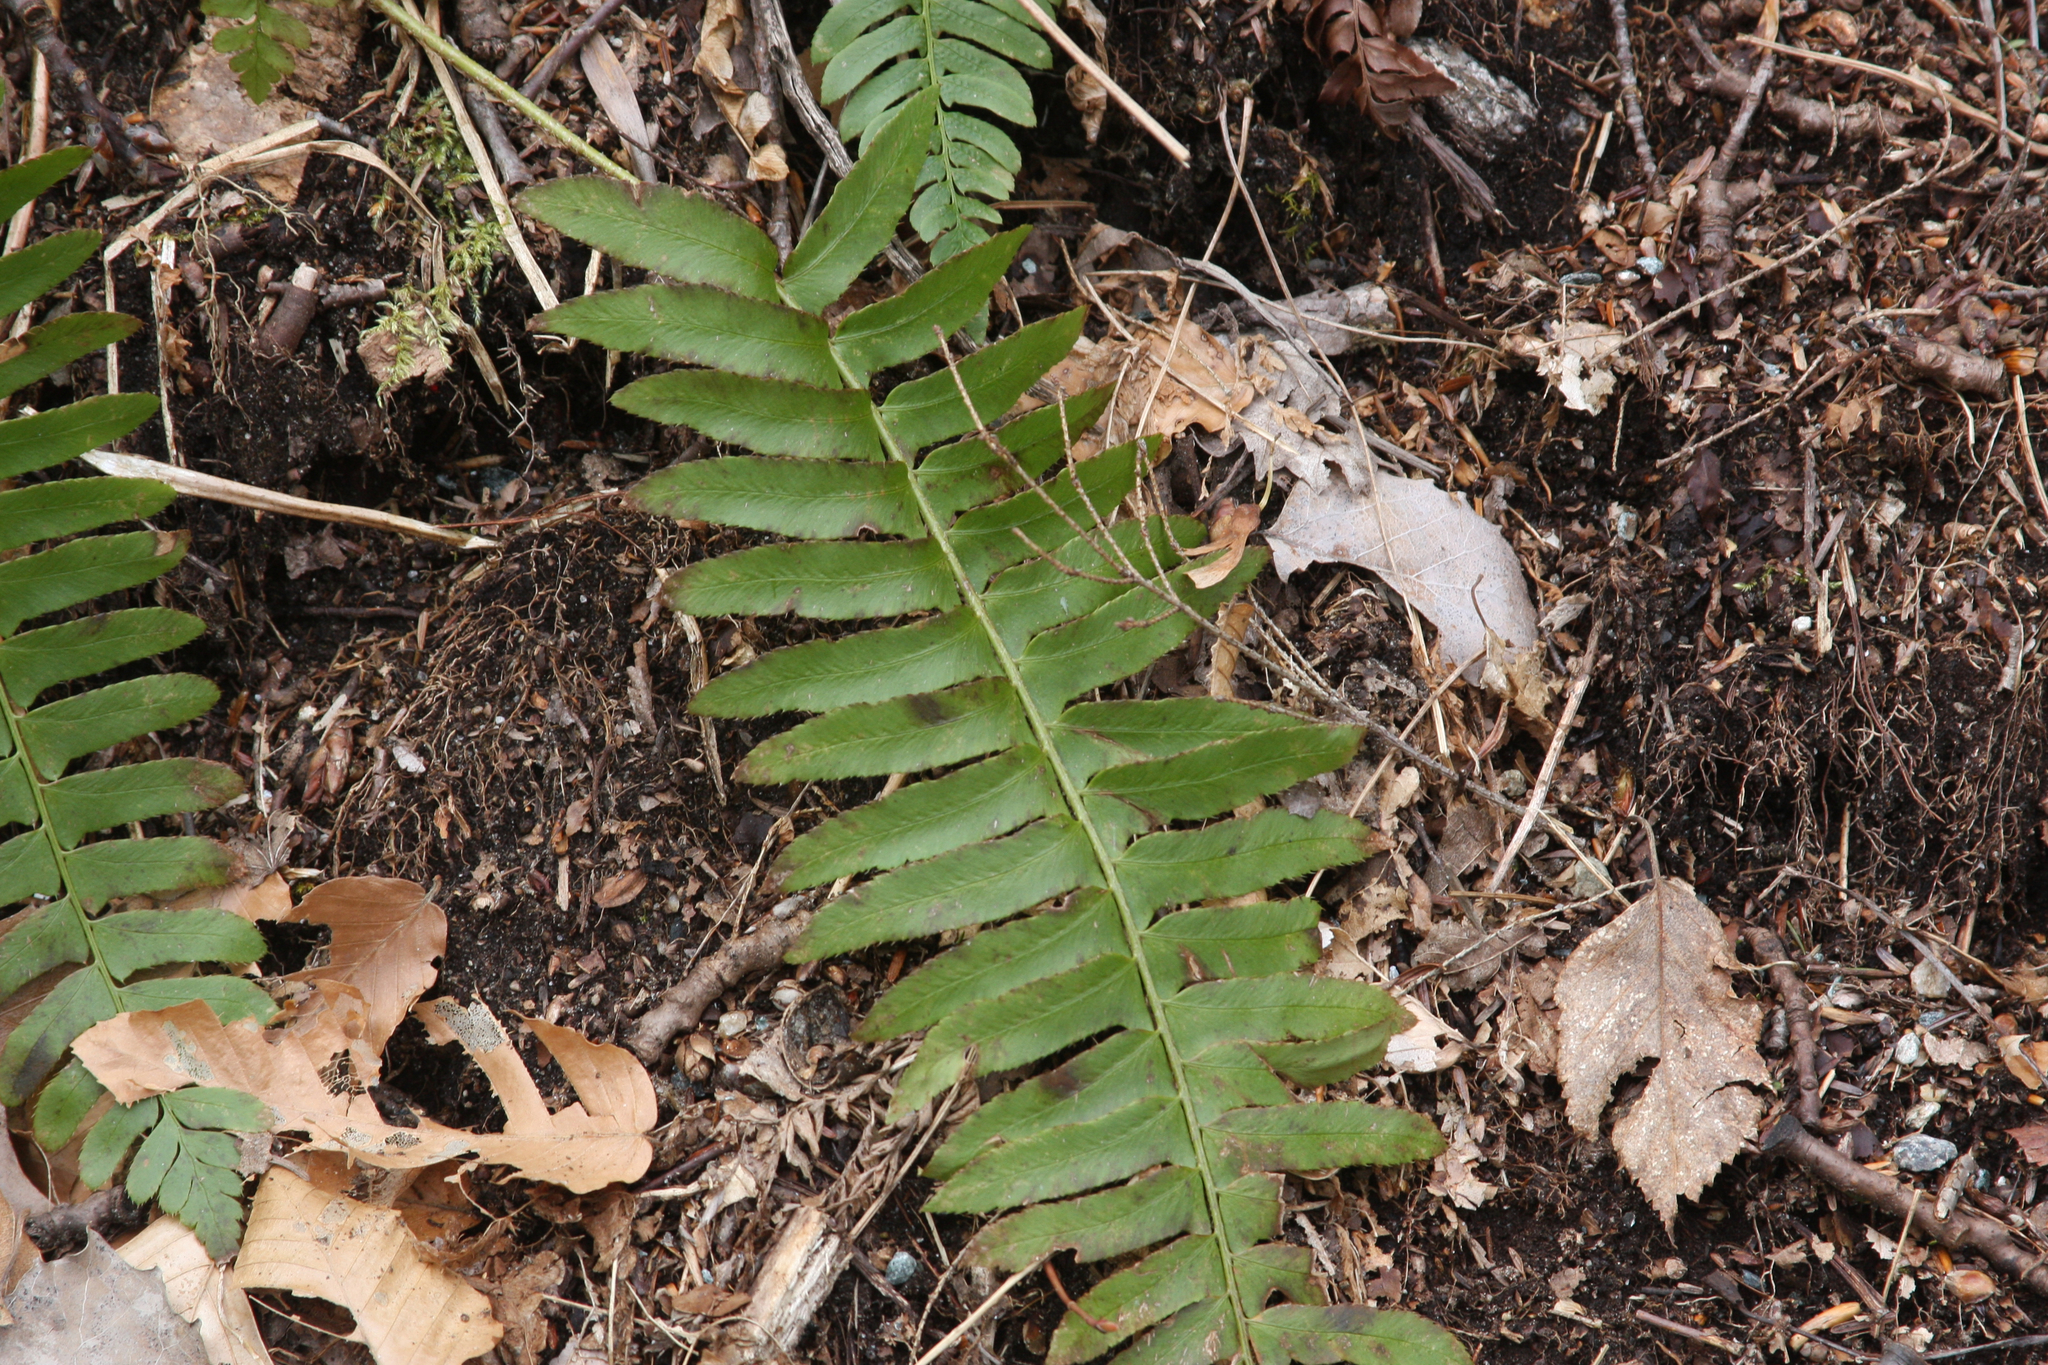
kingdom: Plantae
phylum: Tracheophyta
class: Polypodiopsida
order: Polypodiales
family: Dryopteridaceae
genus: Polystichum
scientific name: Polystichum acrostichoides
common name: Christmas fern
